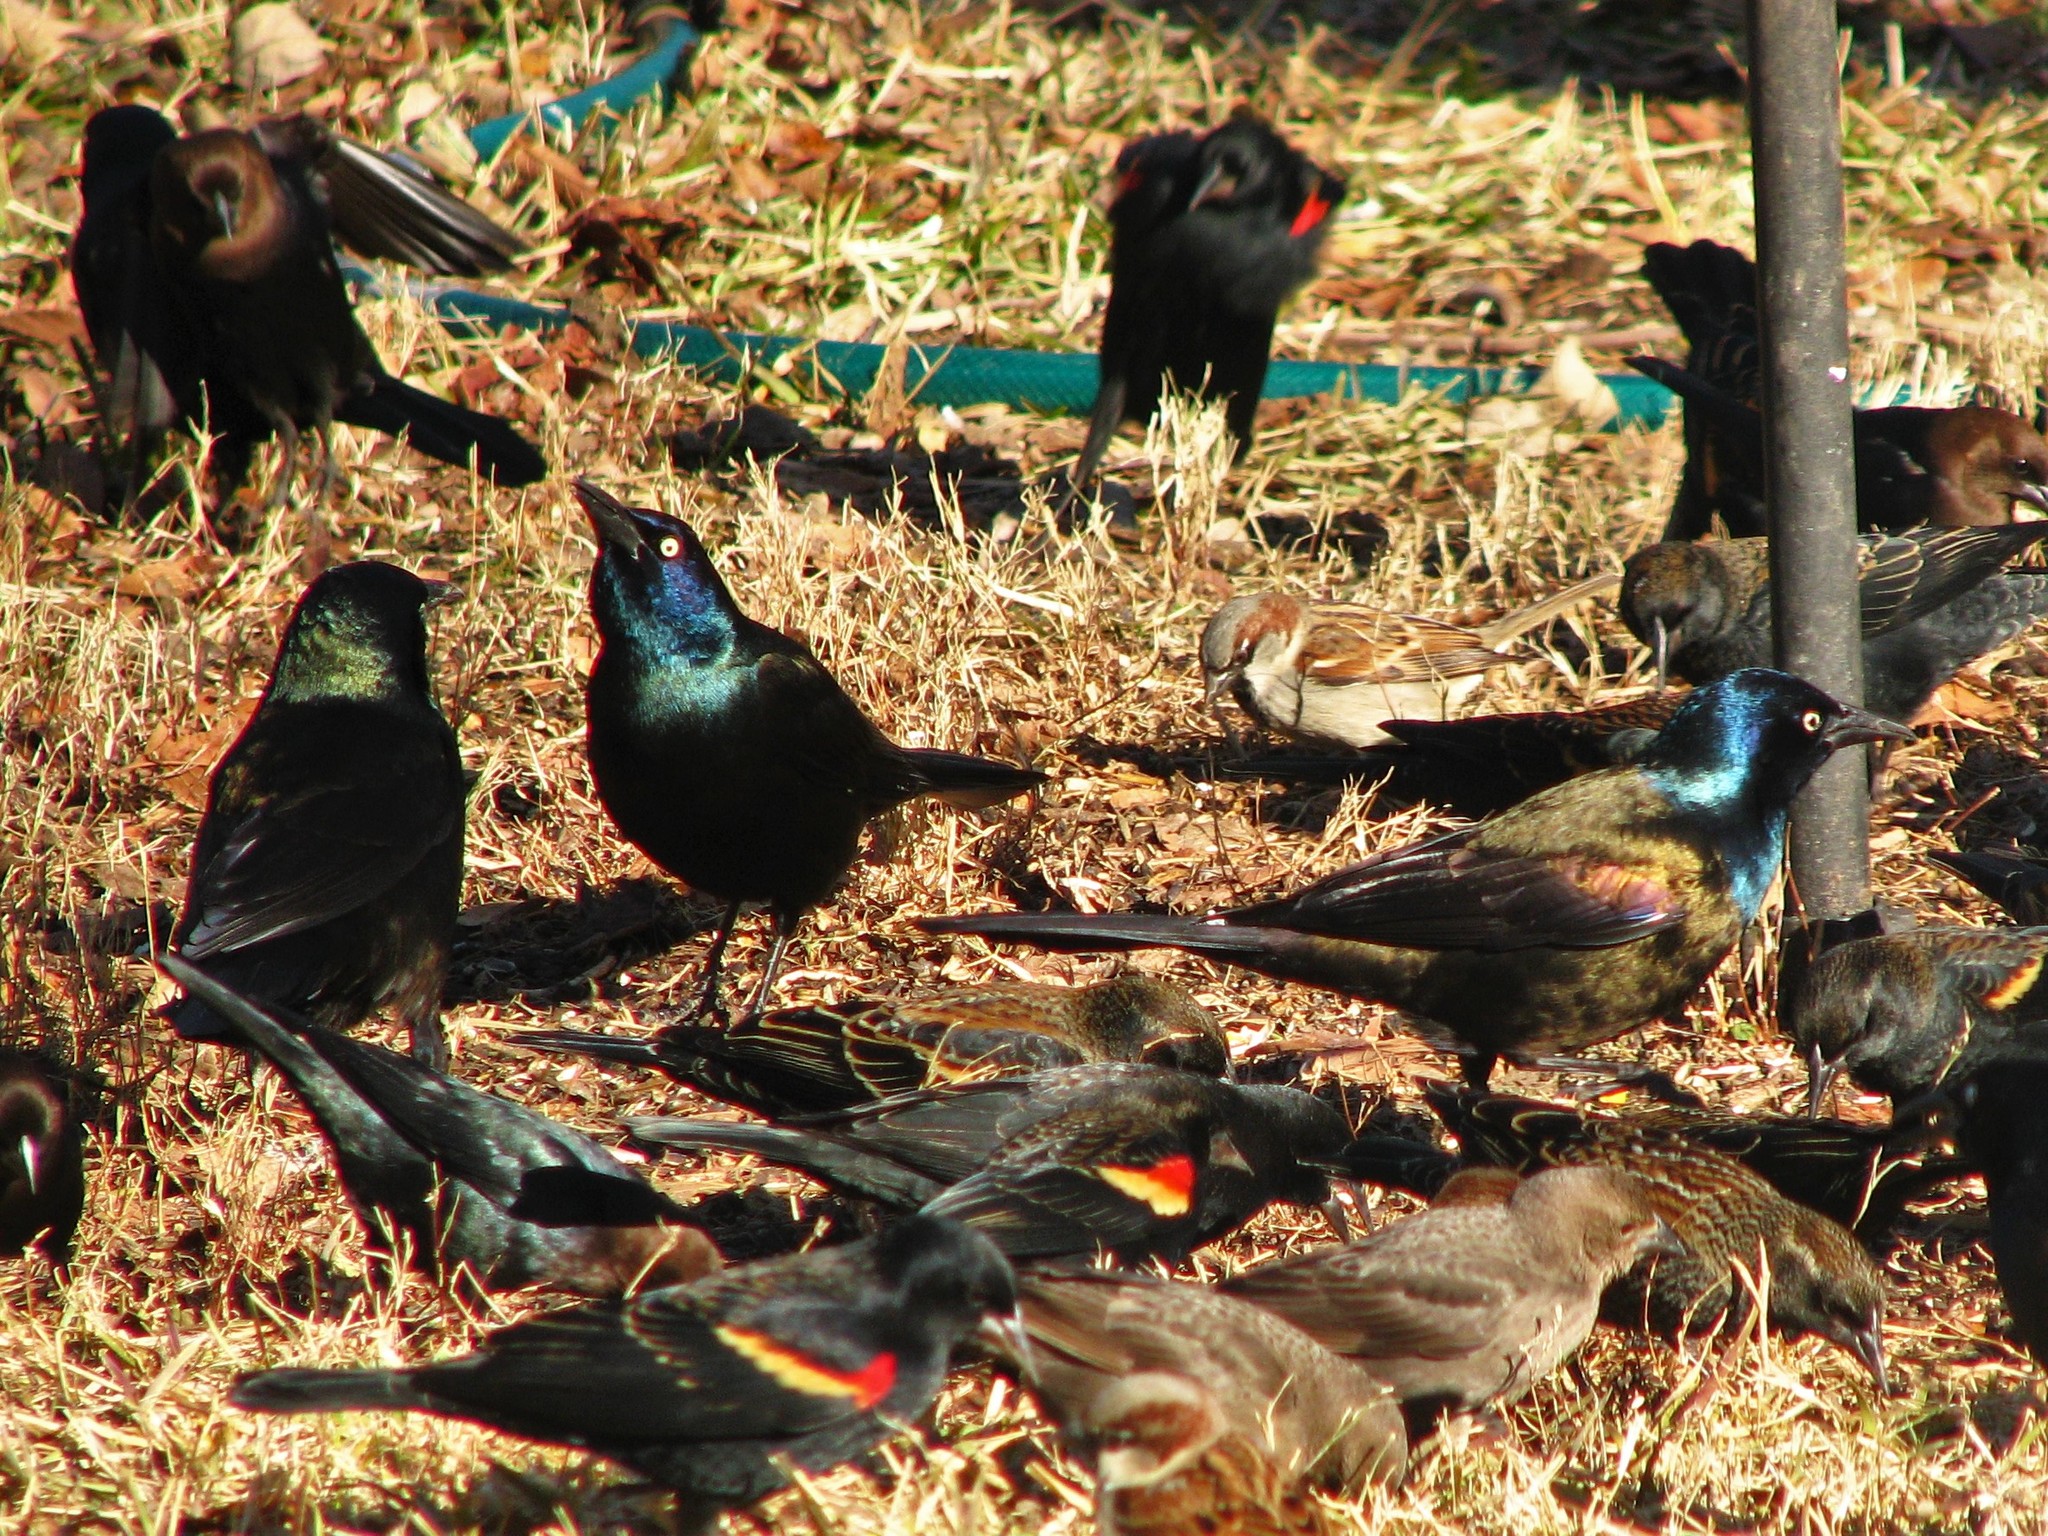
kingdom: Animalia
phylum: Chordata
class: Aves
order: Passeriformes
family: Icteridae
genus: Quiscalus
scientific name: Quiscalus quiscula
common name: Common grackle
